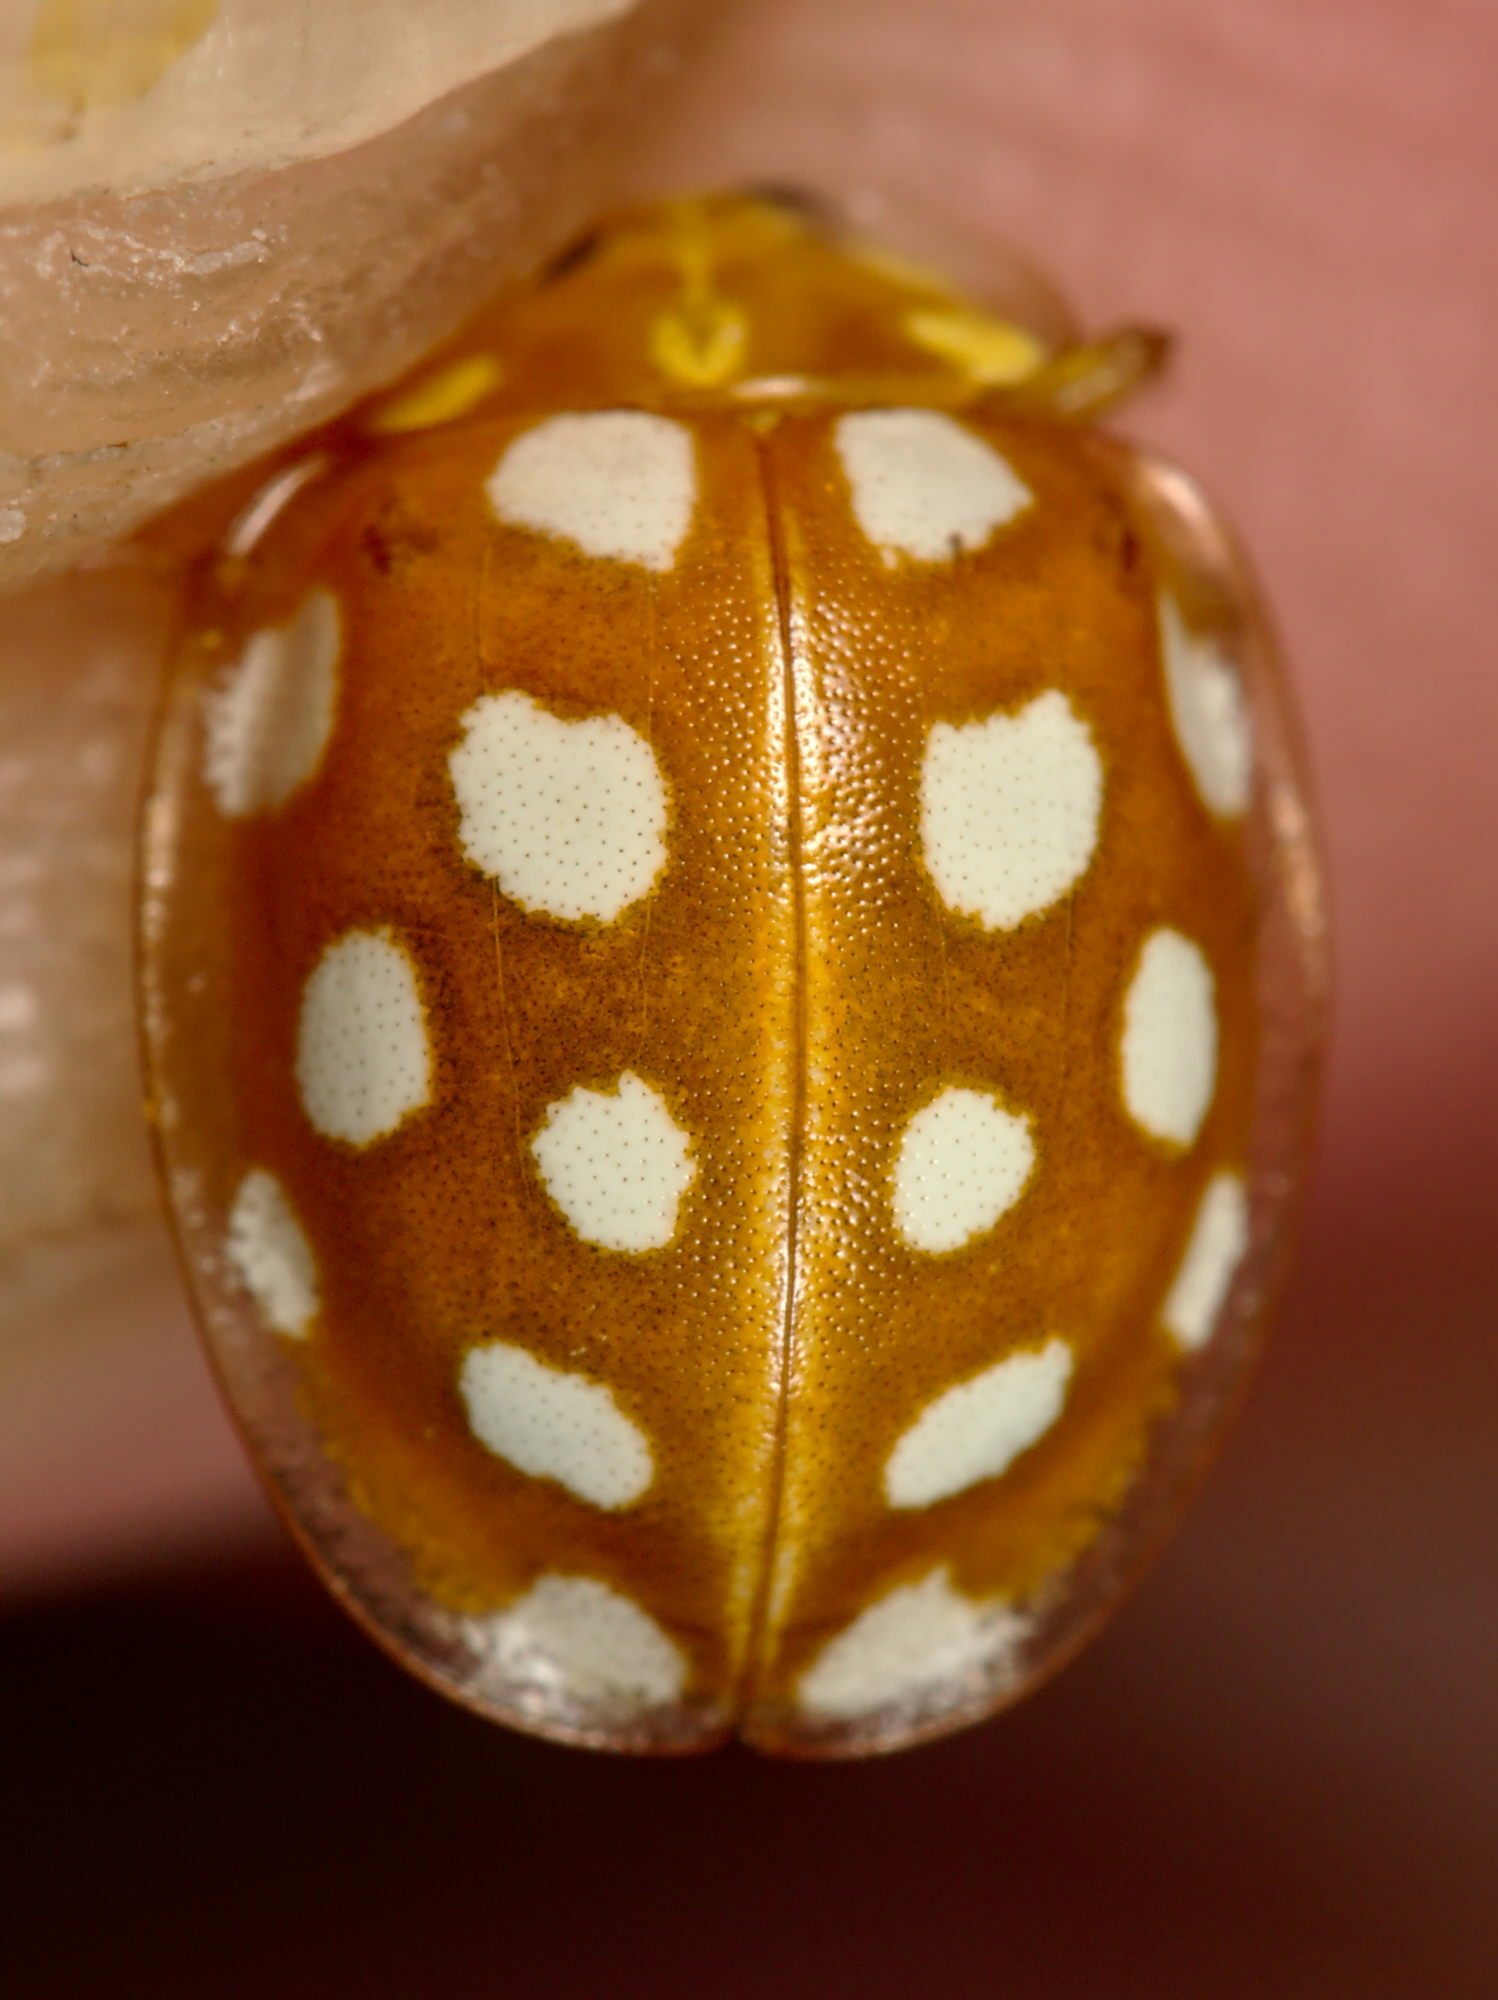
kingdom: Animalia
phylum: Arthropoda
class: Insecta
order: Coleoptera
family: Coccinellidae
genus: Halyzia
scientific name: Halyzia sedecimguttata
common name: Orange ladybird
